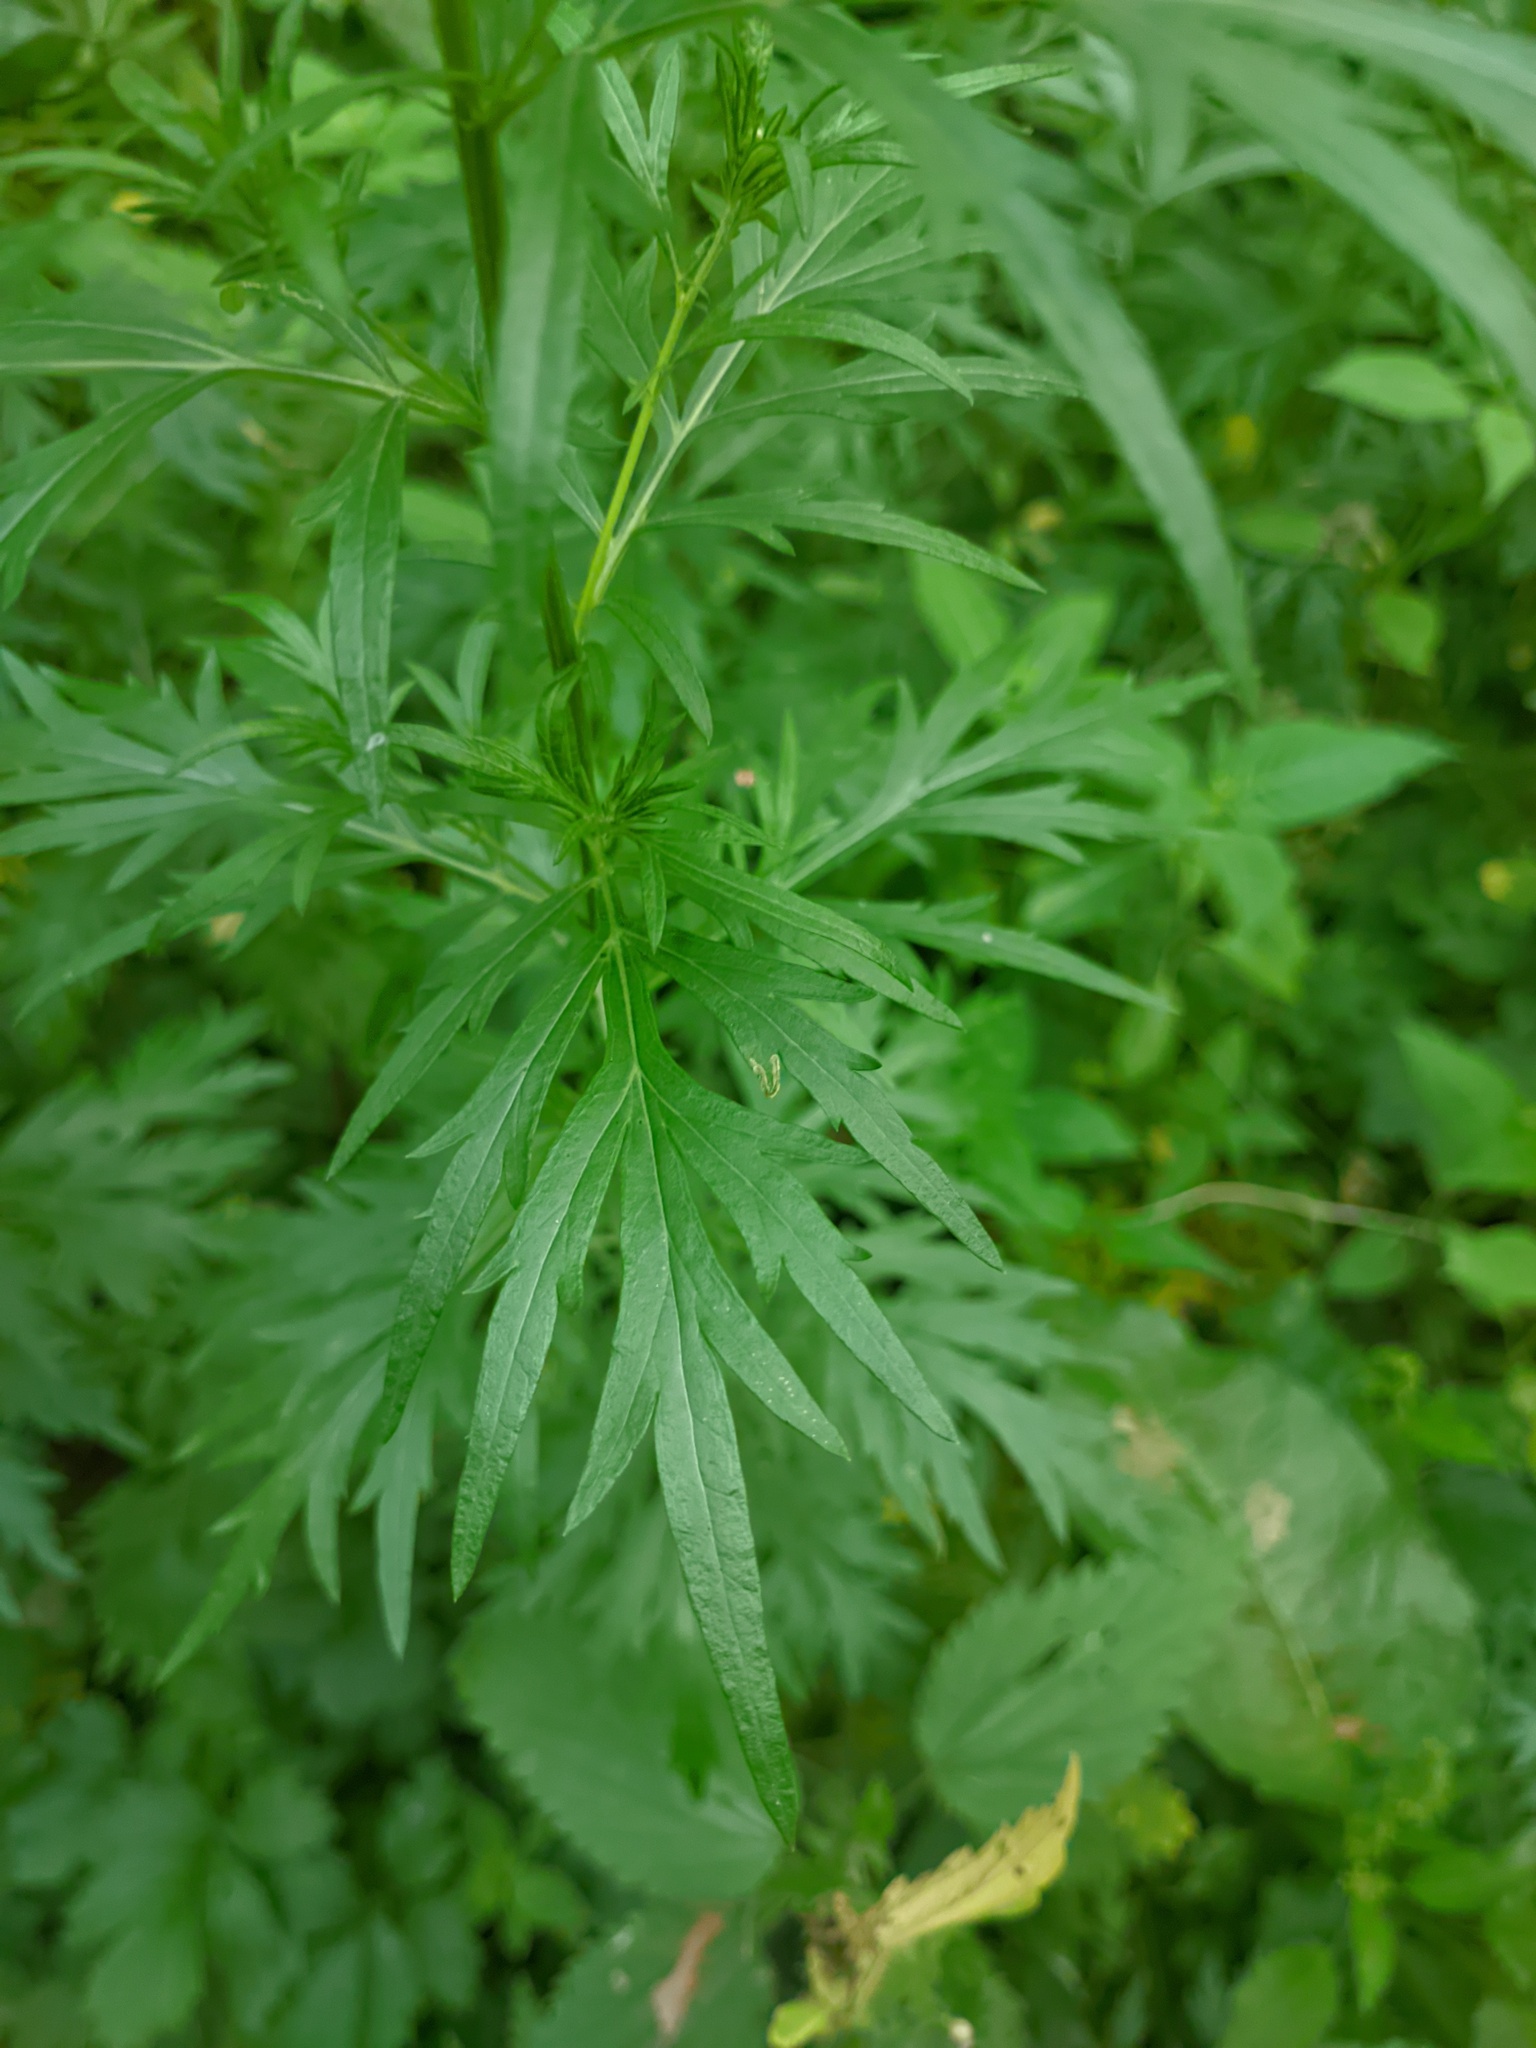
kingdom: Plantae
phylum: Tracheophyta
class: Magnoliopsida
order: Asterales
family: Asteraceae
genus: Artemisia
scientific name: Artemisia vulgaris
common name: Mugwort
